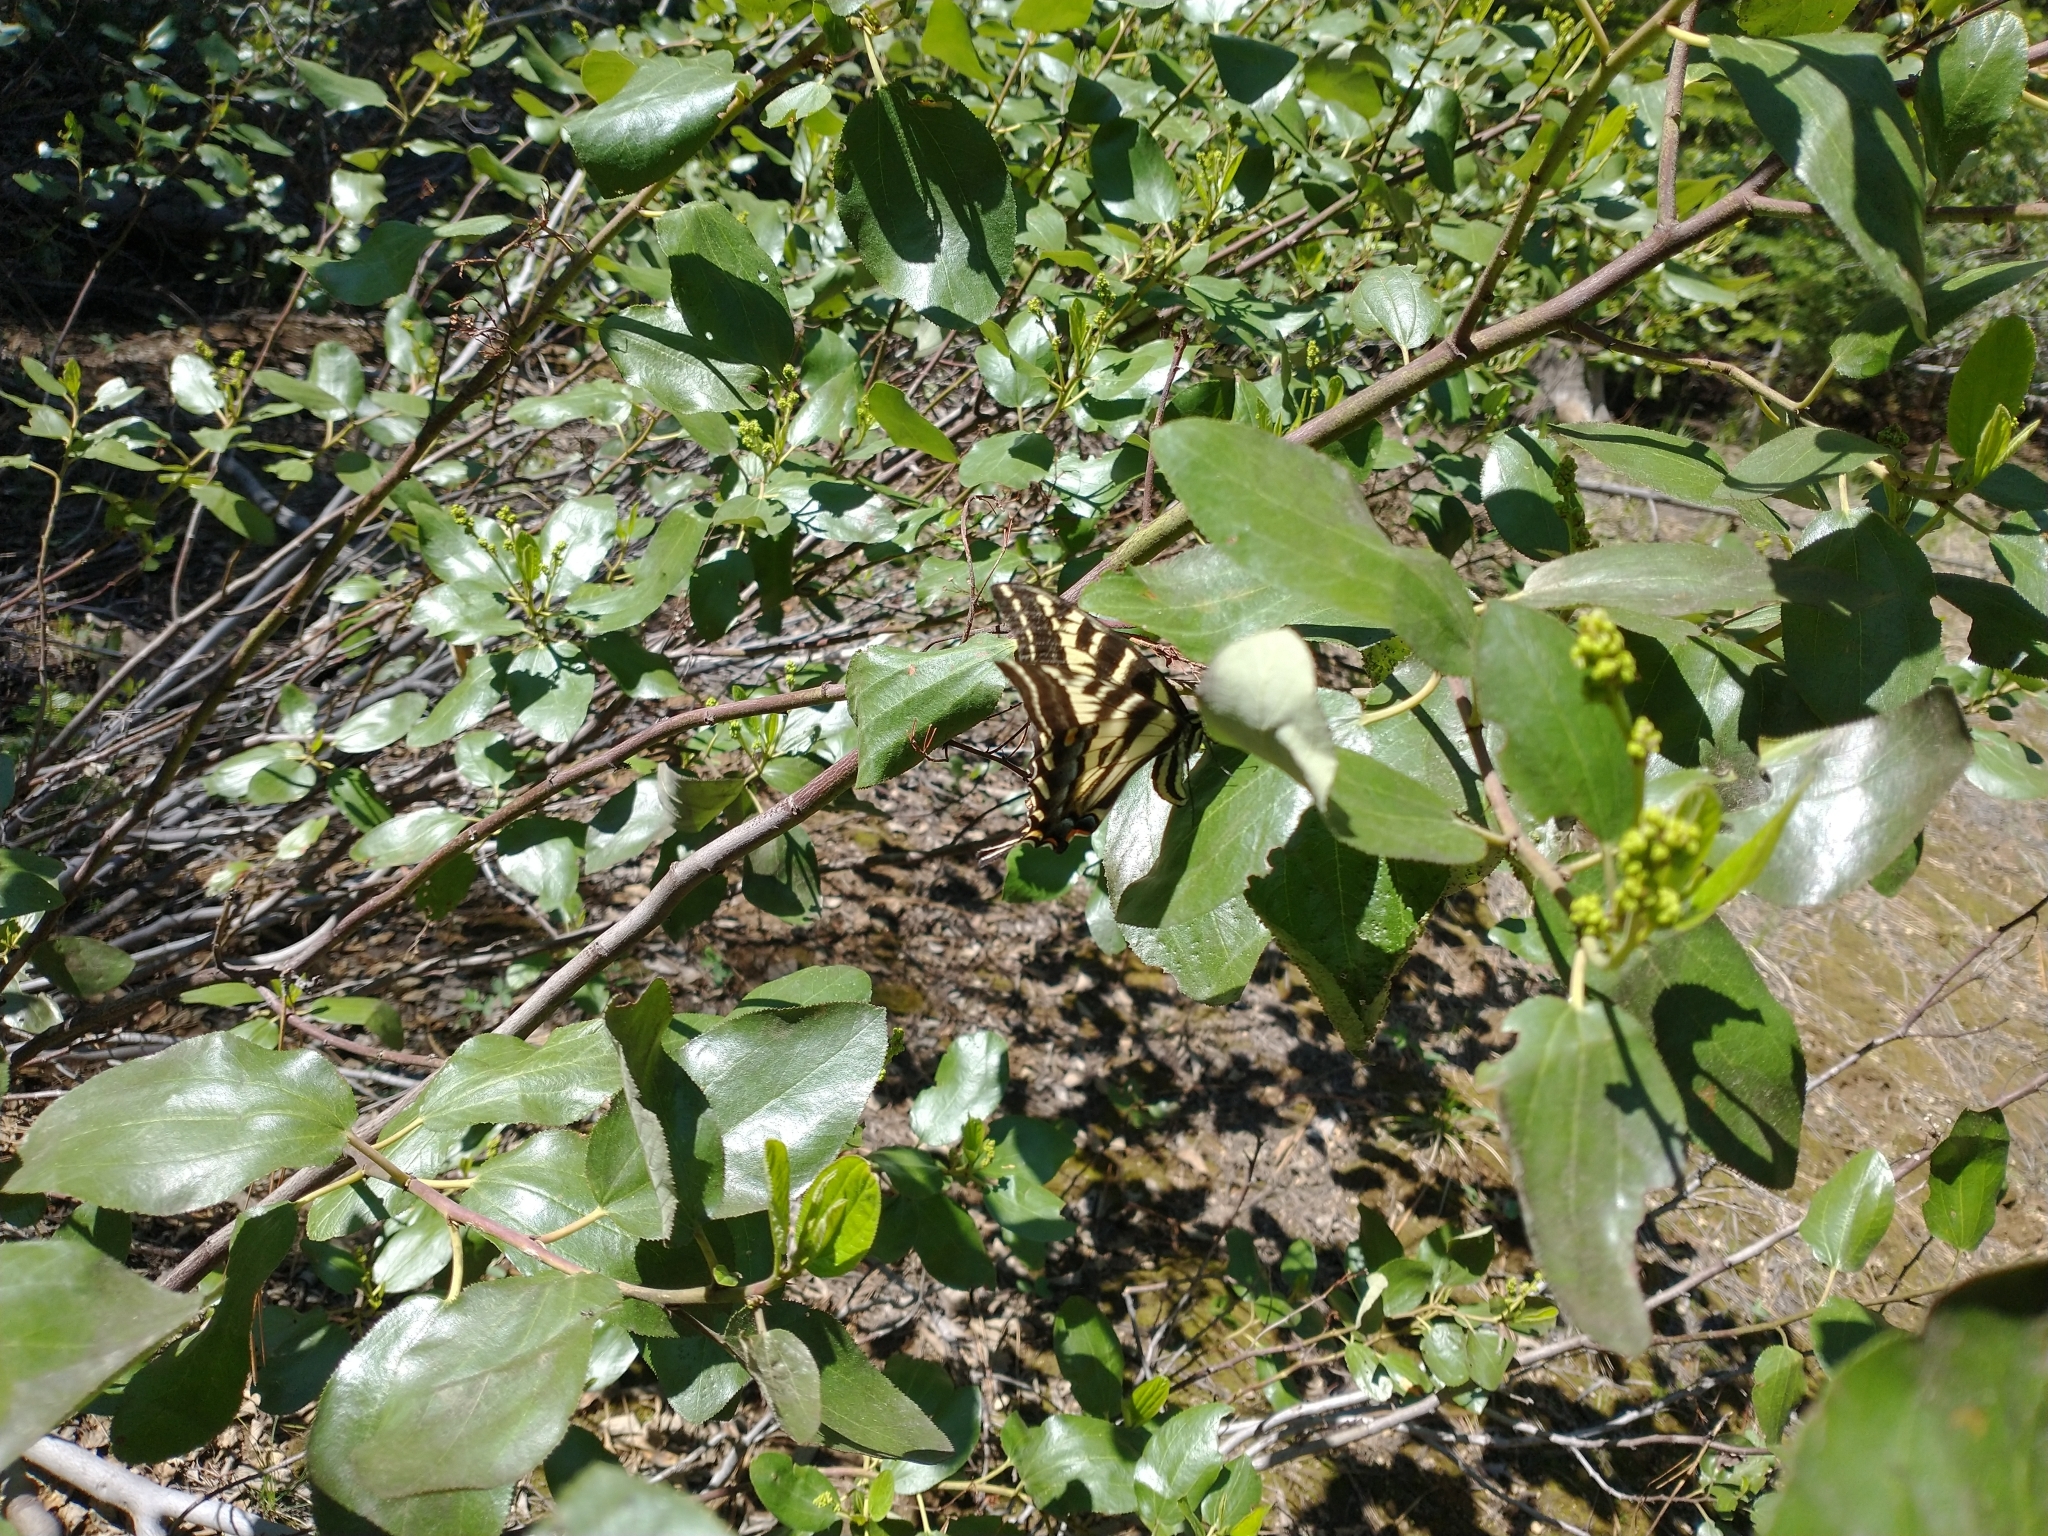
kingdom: Animalia
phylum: Arthropoda
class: Insecta
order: Lepidoptera
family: Papilionidae
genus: Papilio
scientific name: Papilio eurymedon
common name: Pale tiger swallowtail
